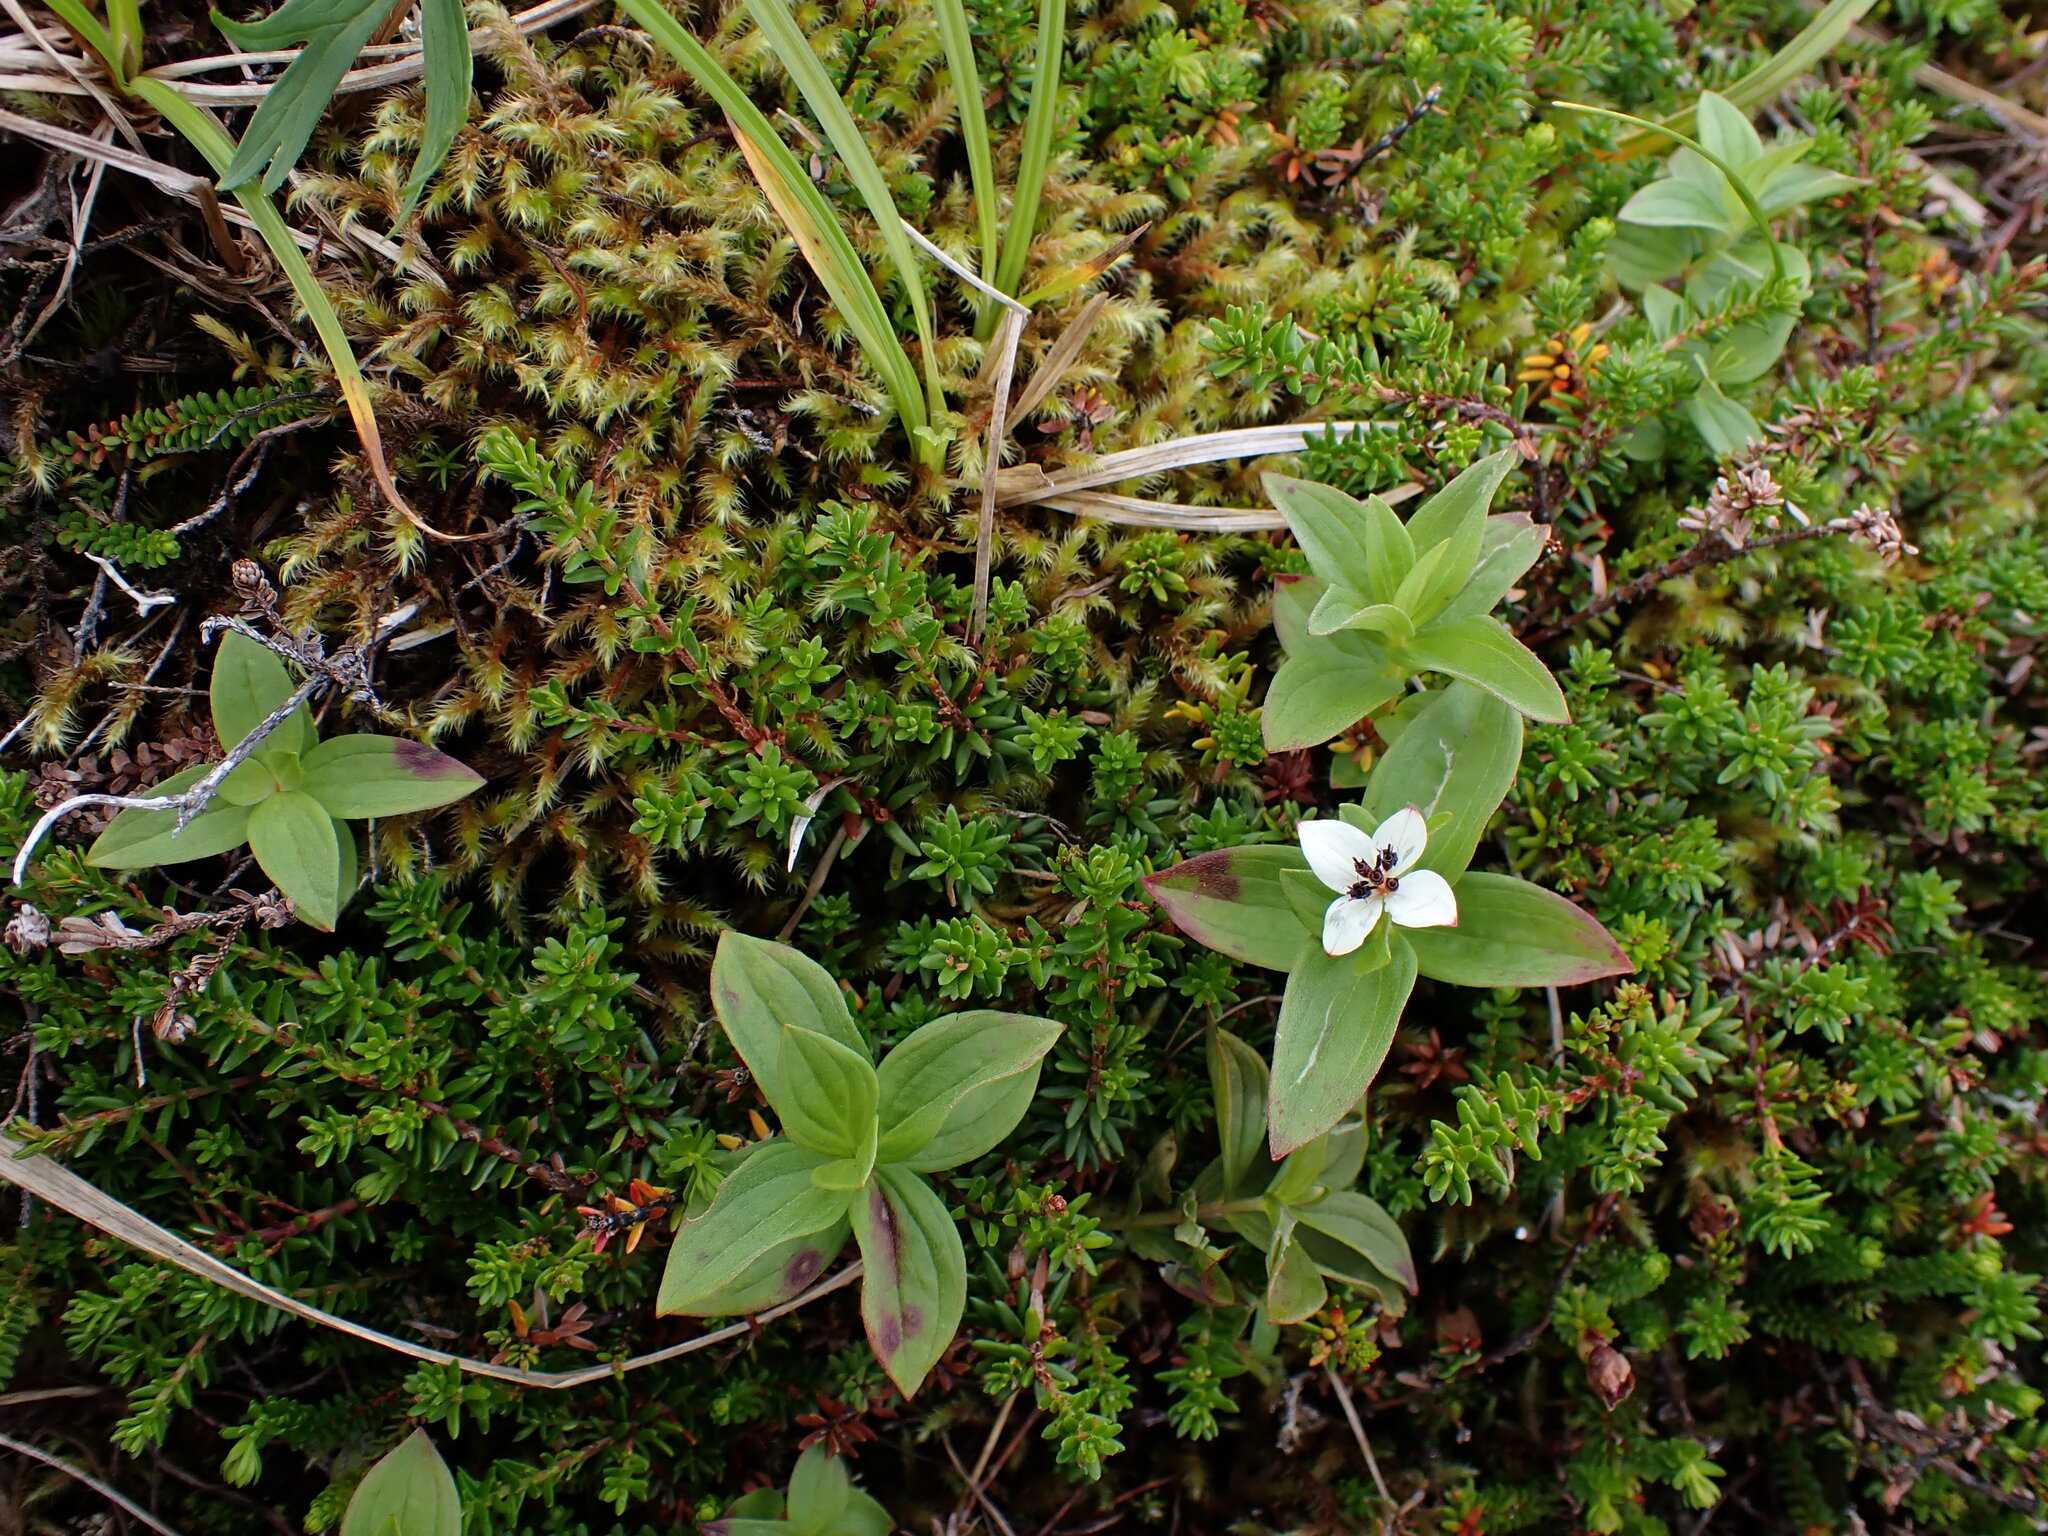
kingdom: Plantae
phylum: Tracheophyta
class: Magnoliopsida
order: Cornales
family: Cornaceae
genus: Cornus
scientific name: Cornus suecica
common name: Dwarf cornel
